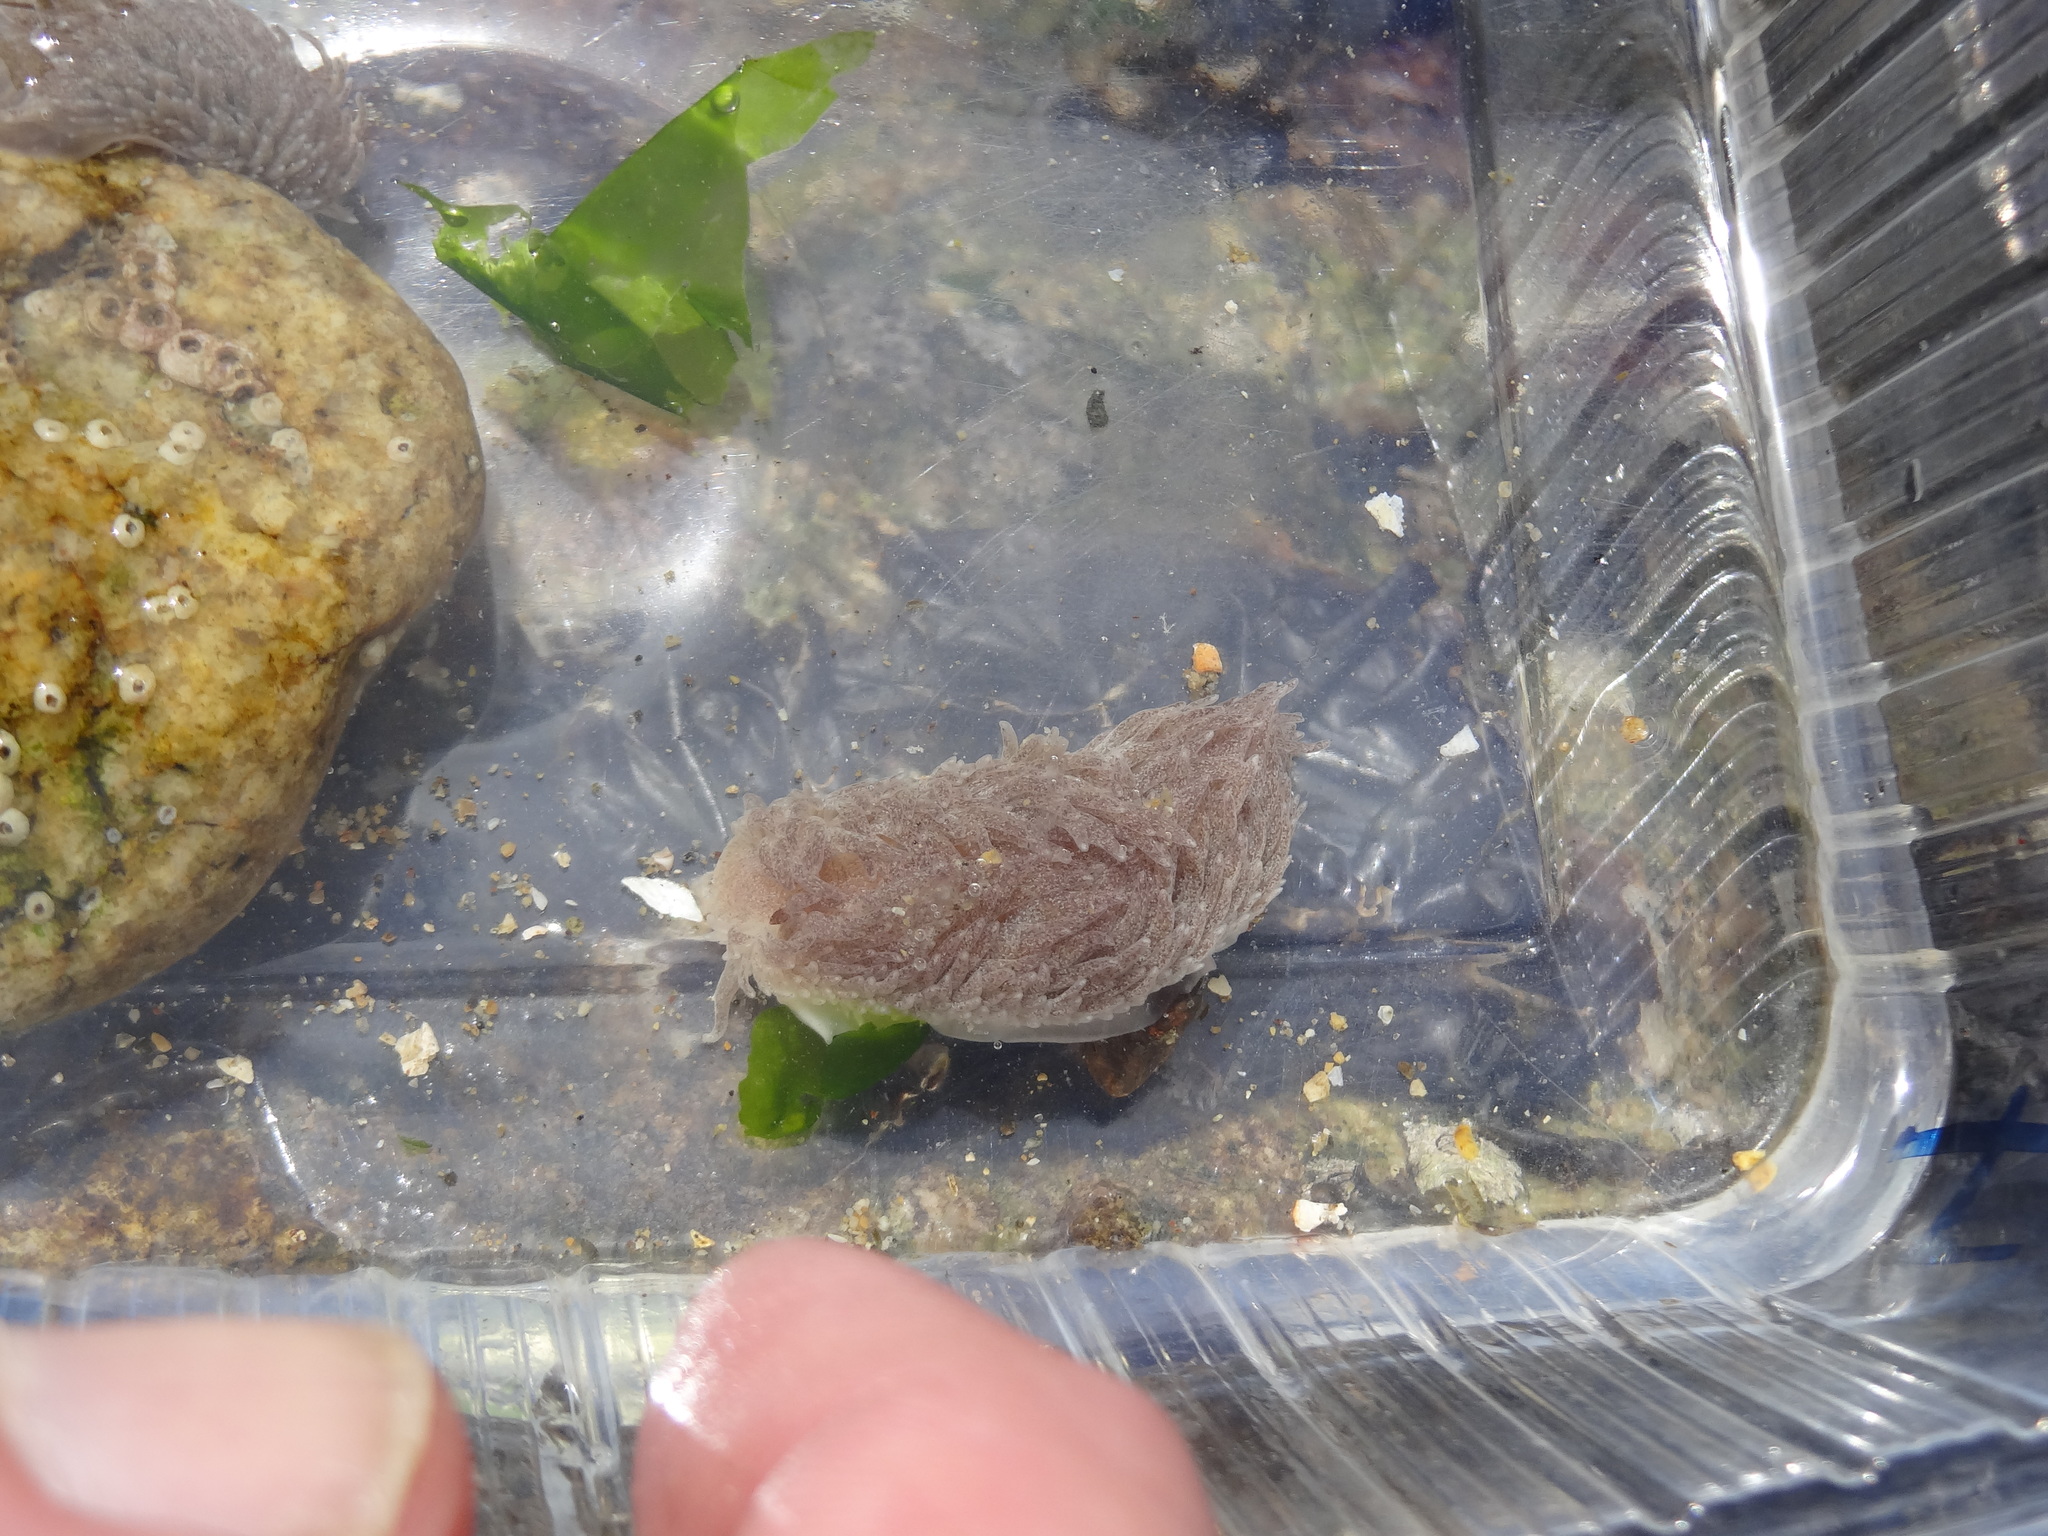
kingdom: Animalia
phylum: Mollusca
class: Gastropoda
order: Nudibranchia
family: Aeolidiidae
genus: Aeolidia
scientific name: Aeolidia campbellii
